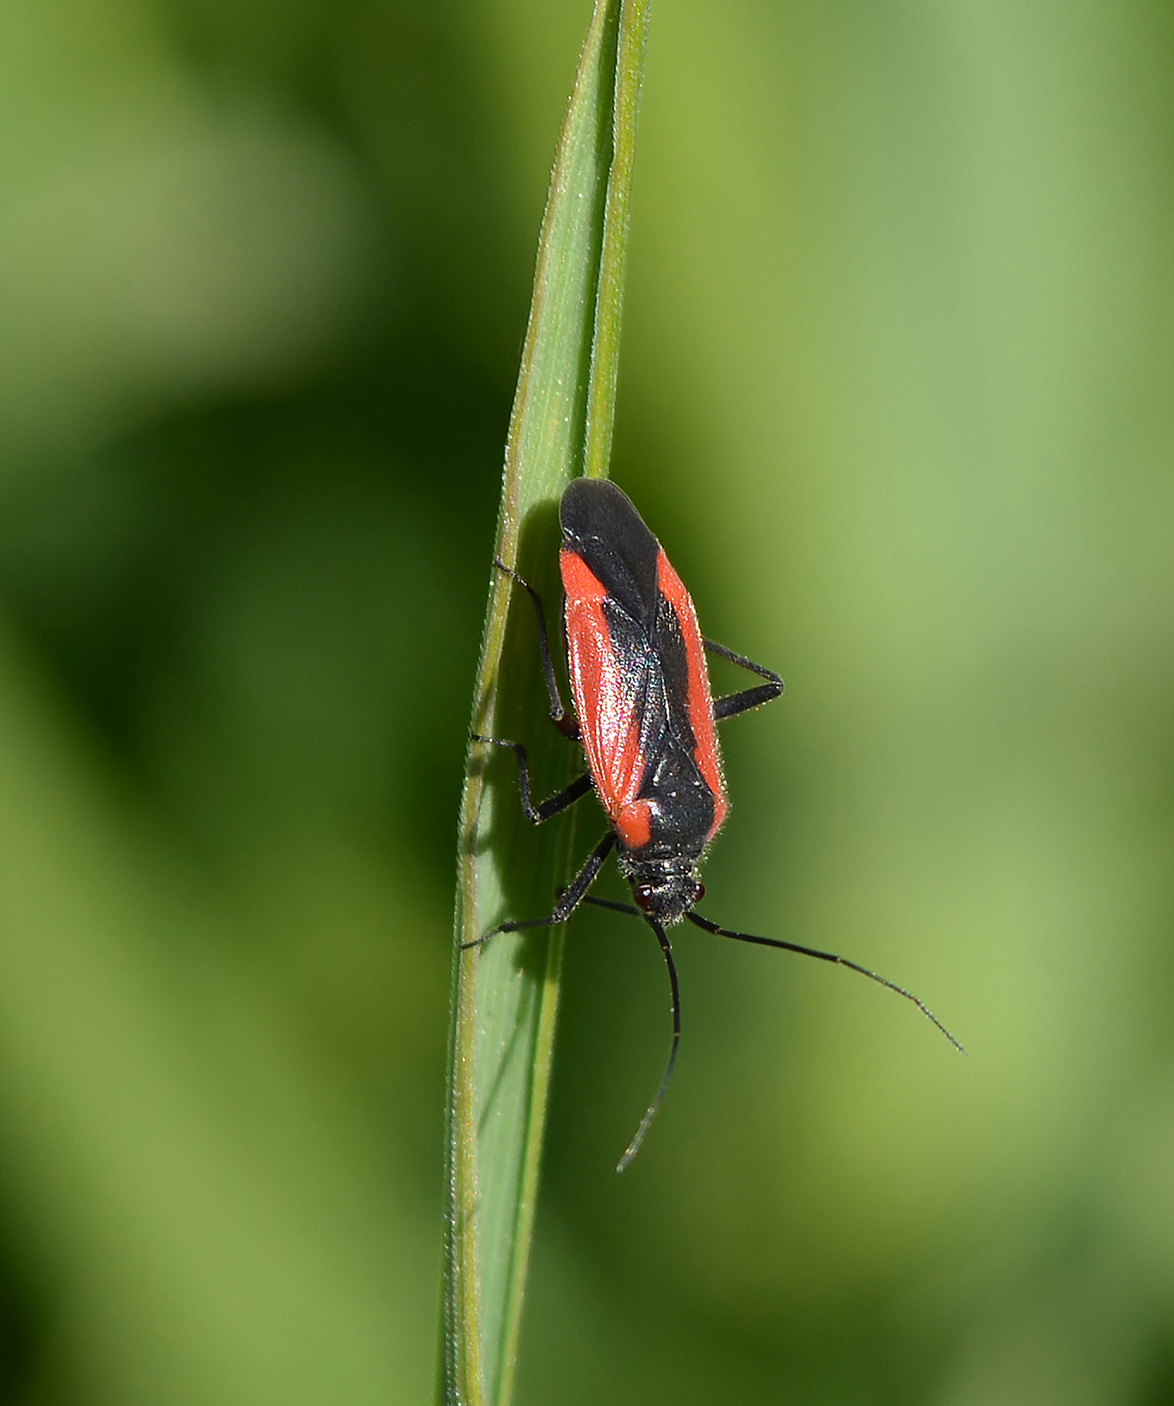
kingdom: Animalia
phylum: Arthropoda
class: Insecta
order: Hemiptera
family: Miridae
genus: Dionconotus
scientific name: Dionconotus neglectus
